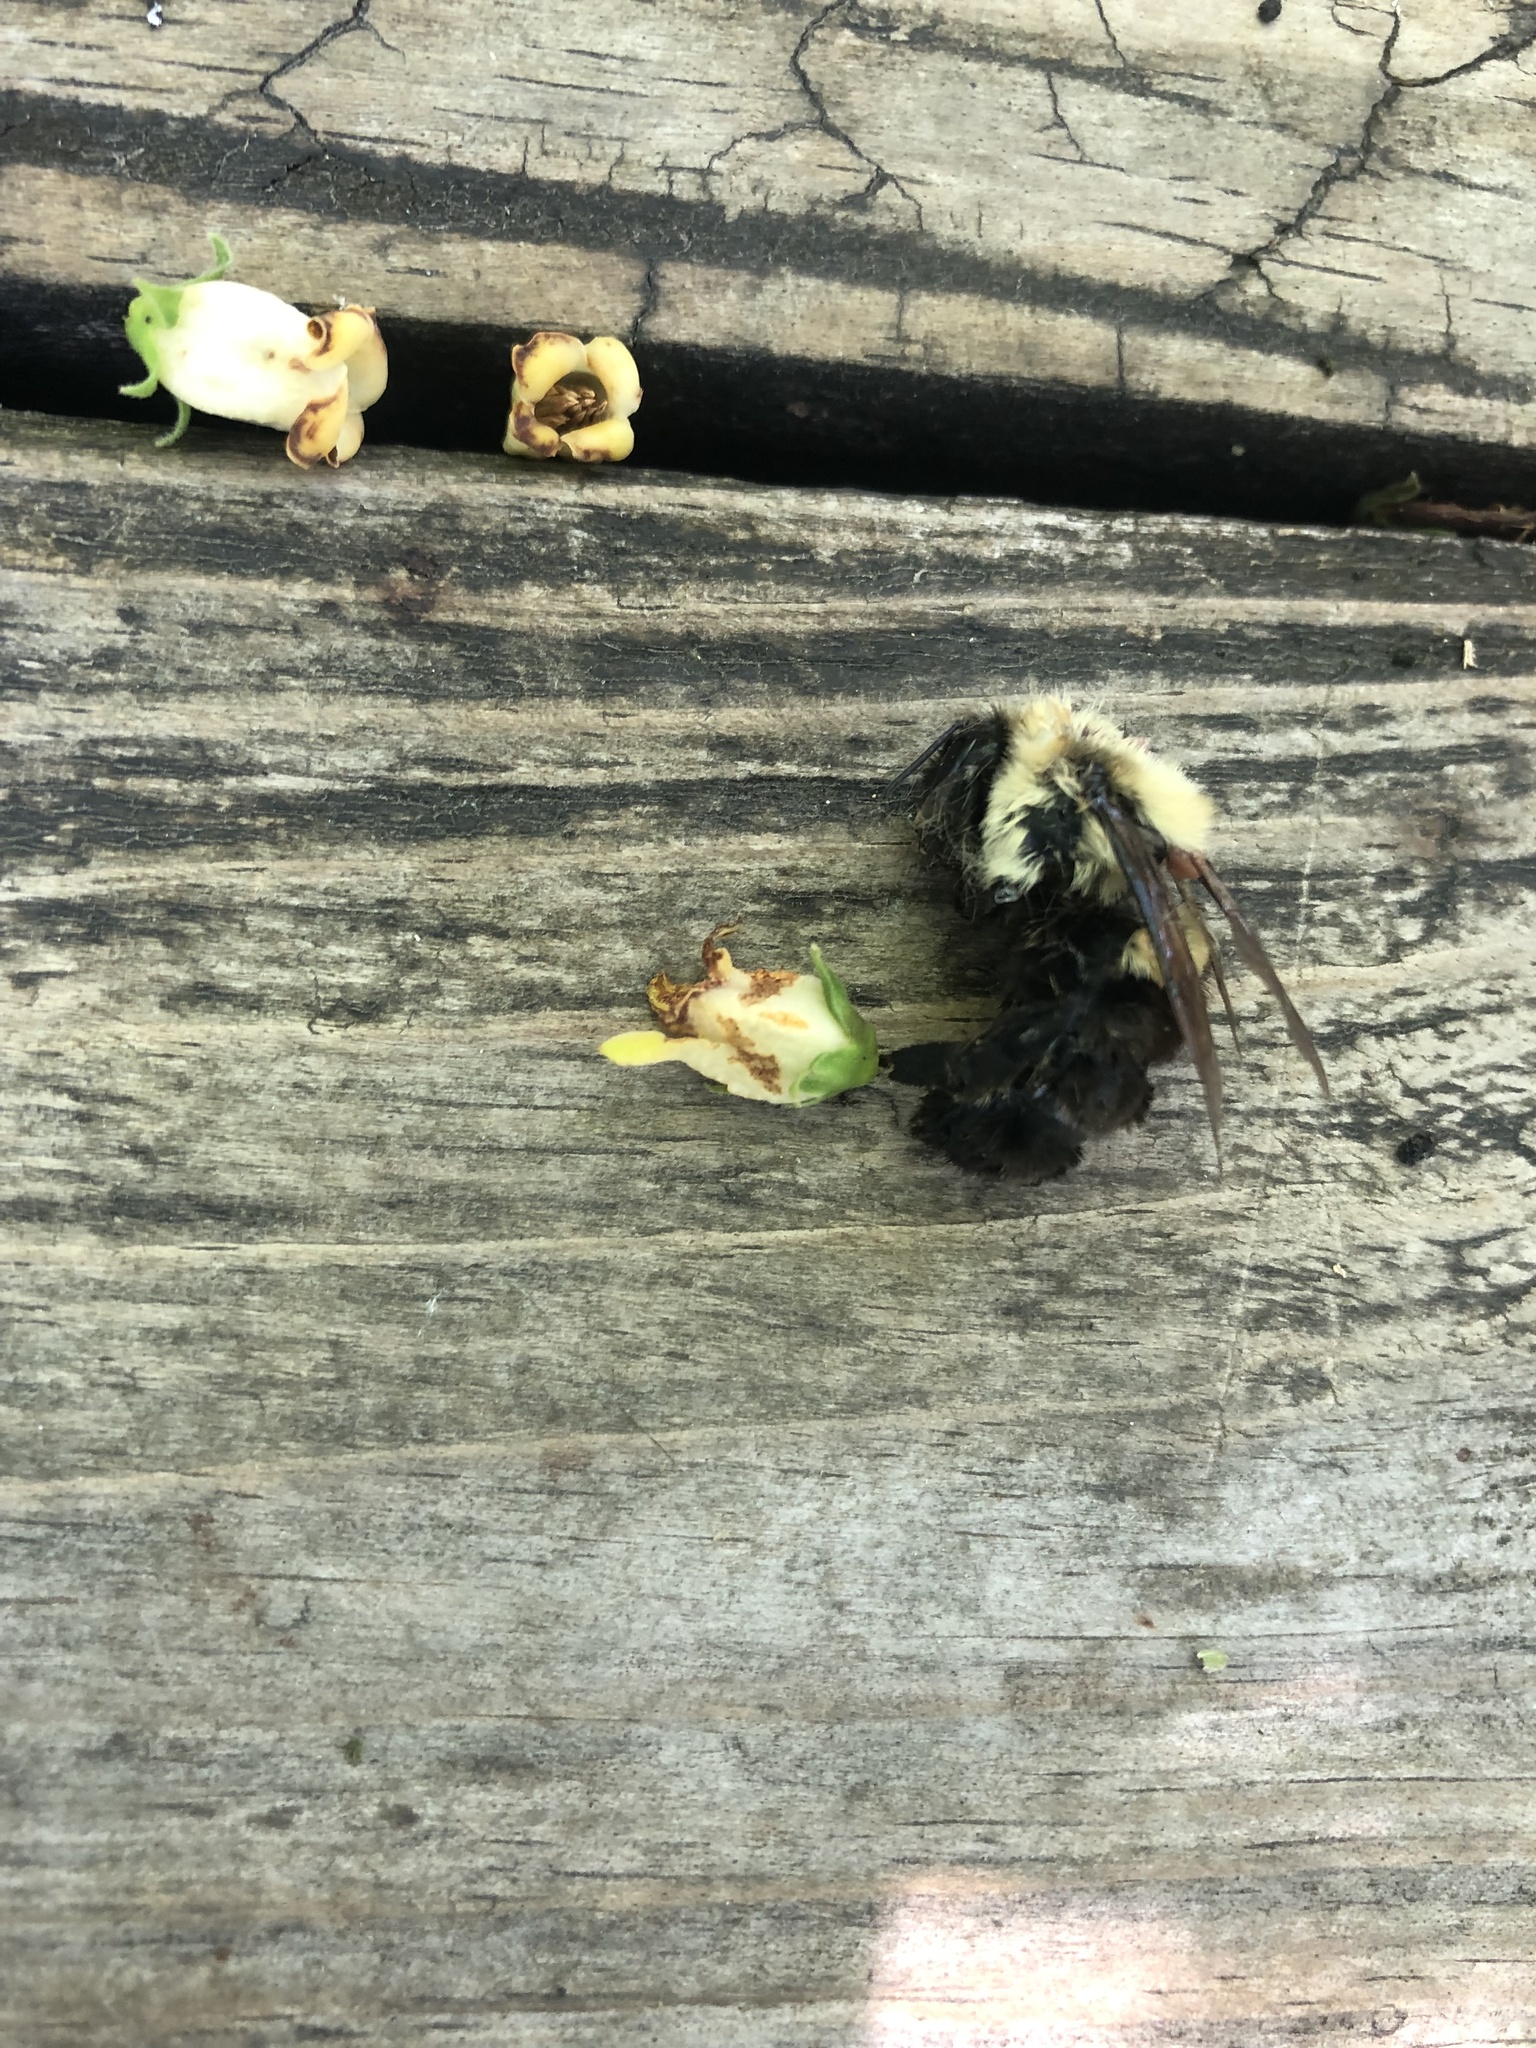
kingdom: Animalia
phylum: Arthropoda
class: Insecta
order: Hymenoptera
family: Apidae
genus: Bombus
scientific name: Bombus impatiens
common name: Common eastern bumble bee
